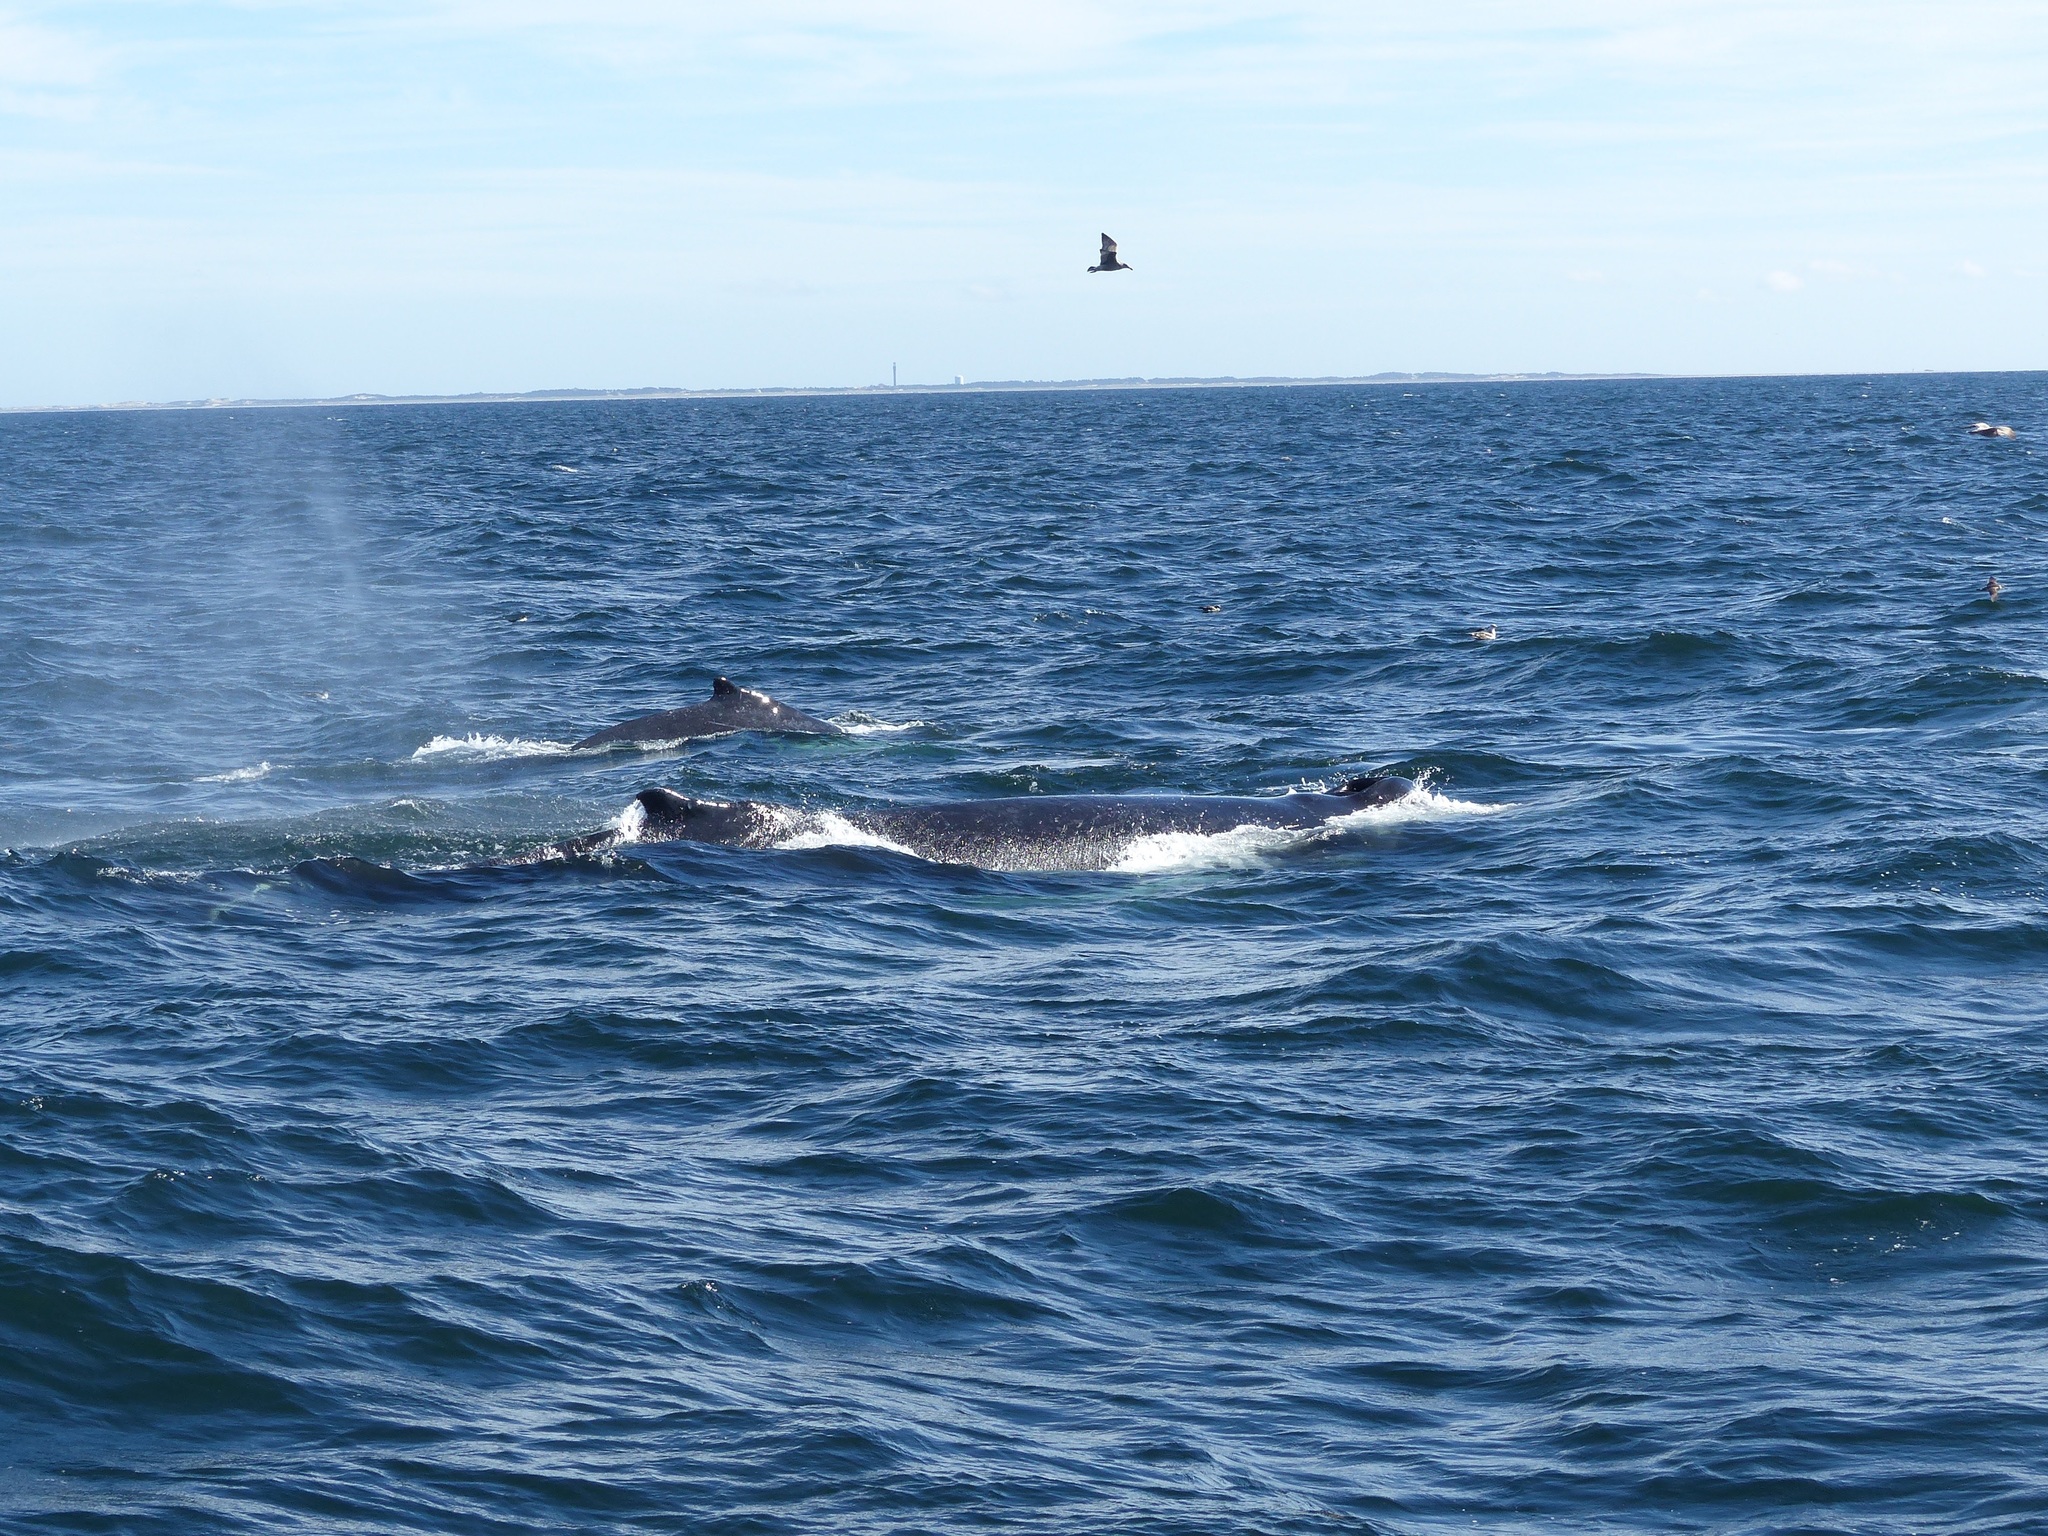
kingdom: Animalia
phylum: Chordata
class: Mammalia
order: Cetacea
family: Balaenopteridae
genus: Megaptera
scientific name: Megaptera novaeangliae
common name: Humpback whale
